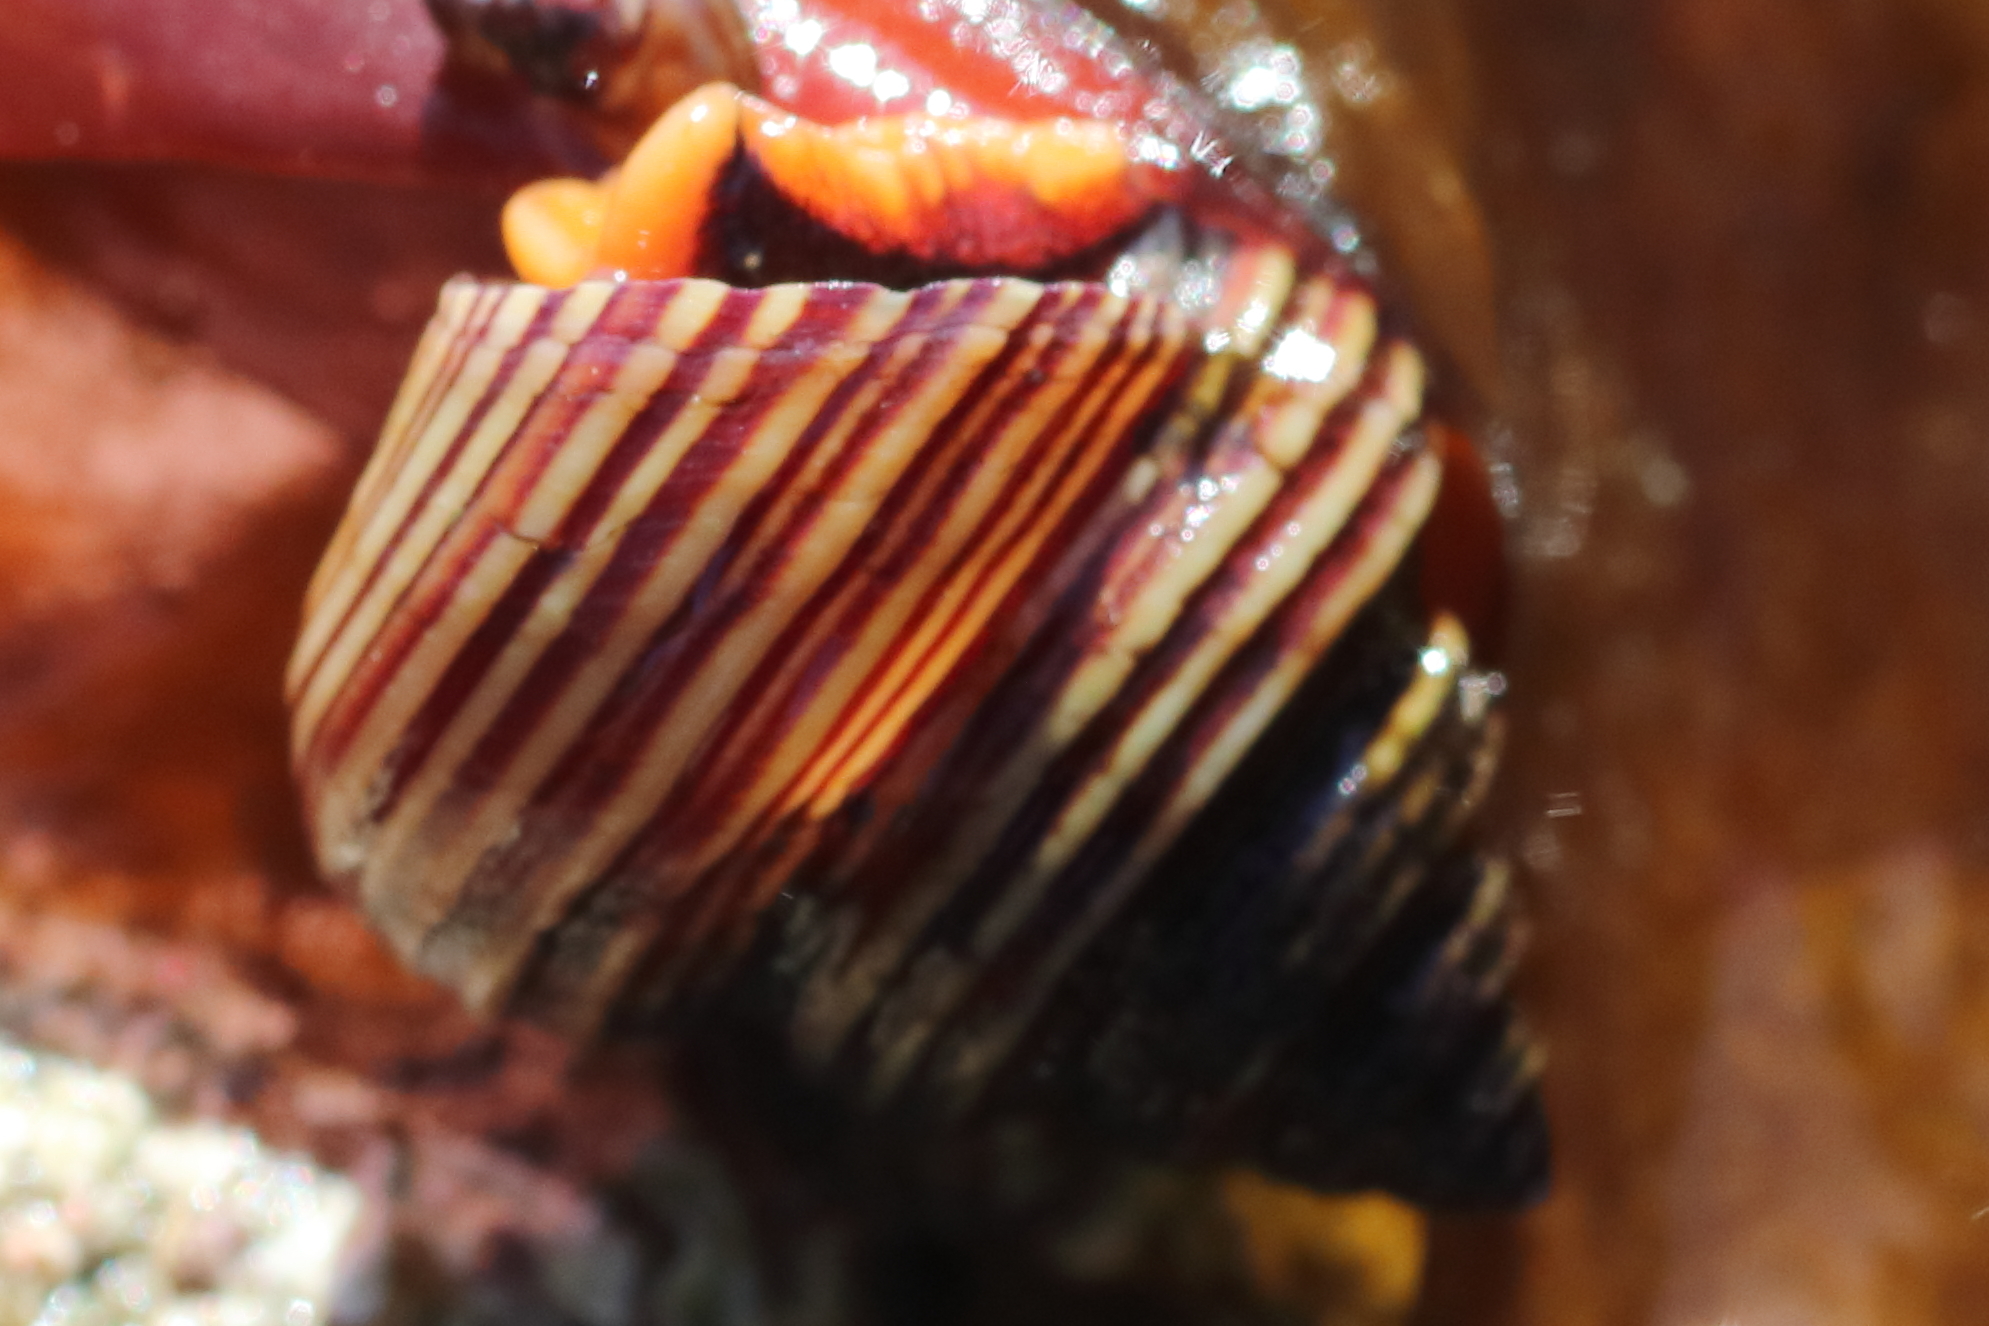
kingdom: Animalia
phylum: Mollusca
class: Gastropoda
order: Trochida
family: Calliostomatidae
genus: Calliostoma
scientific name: Calliostoma ligatum
